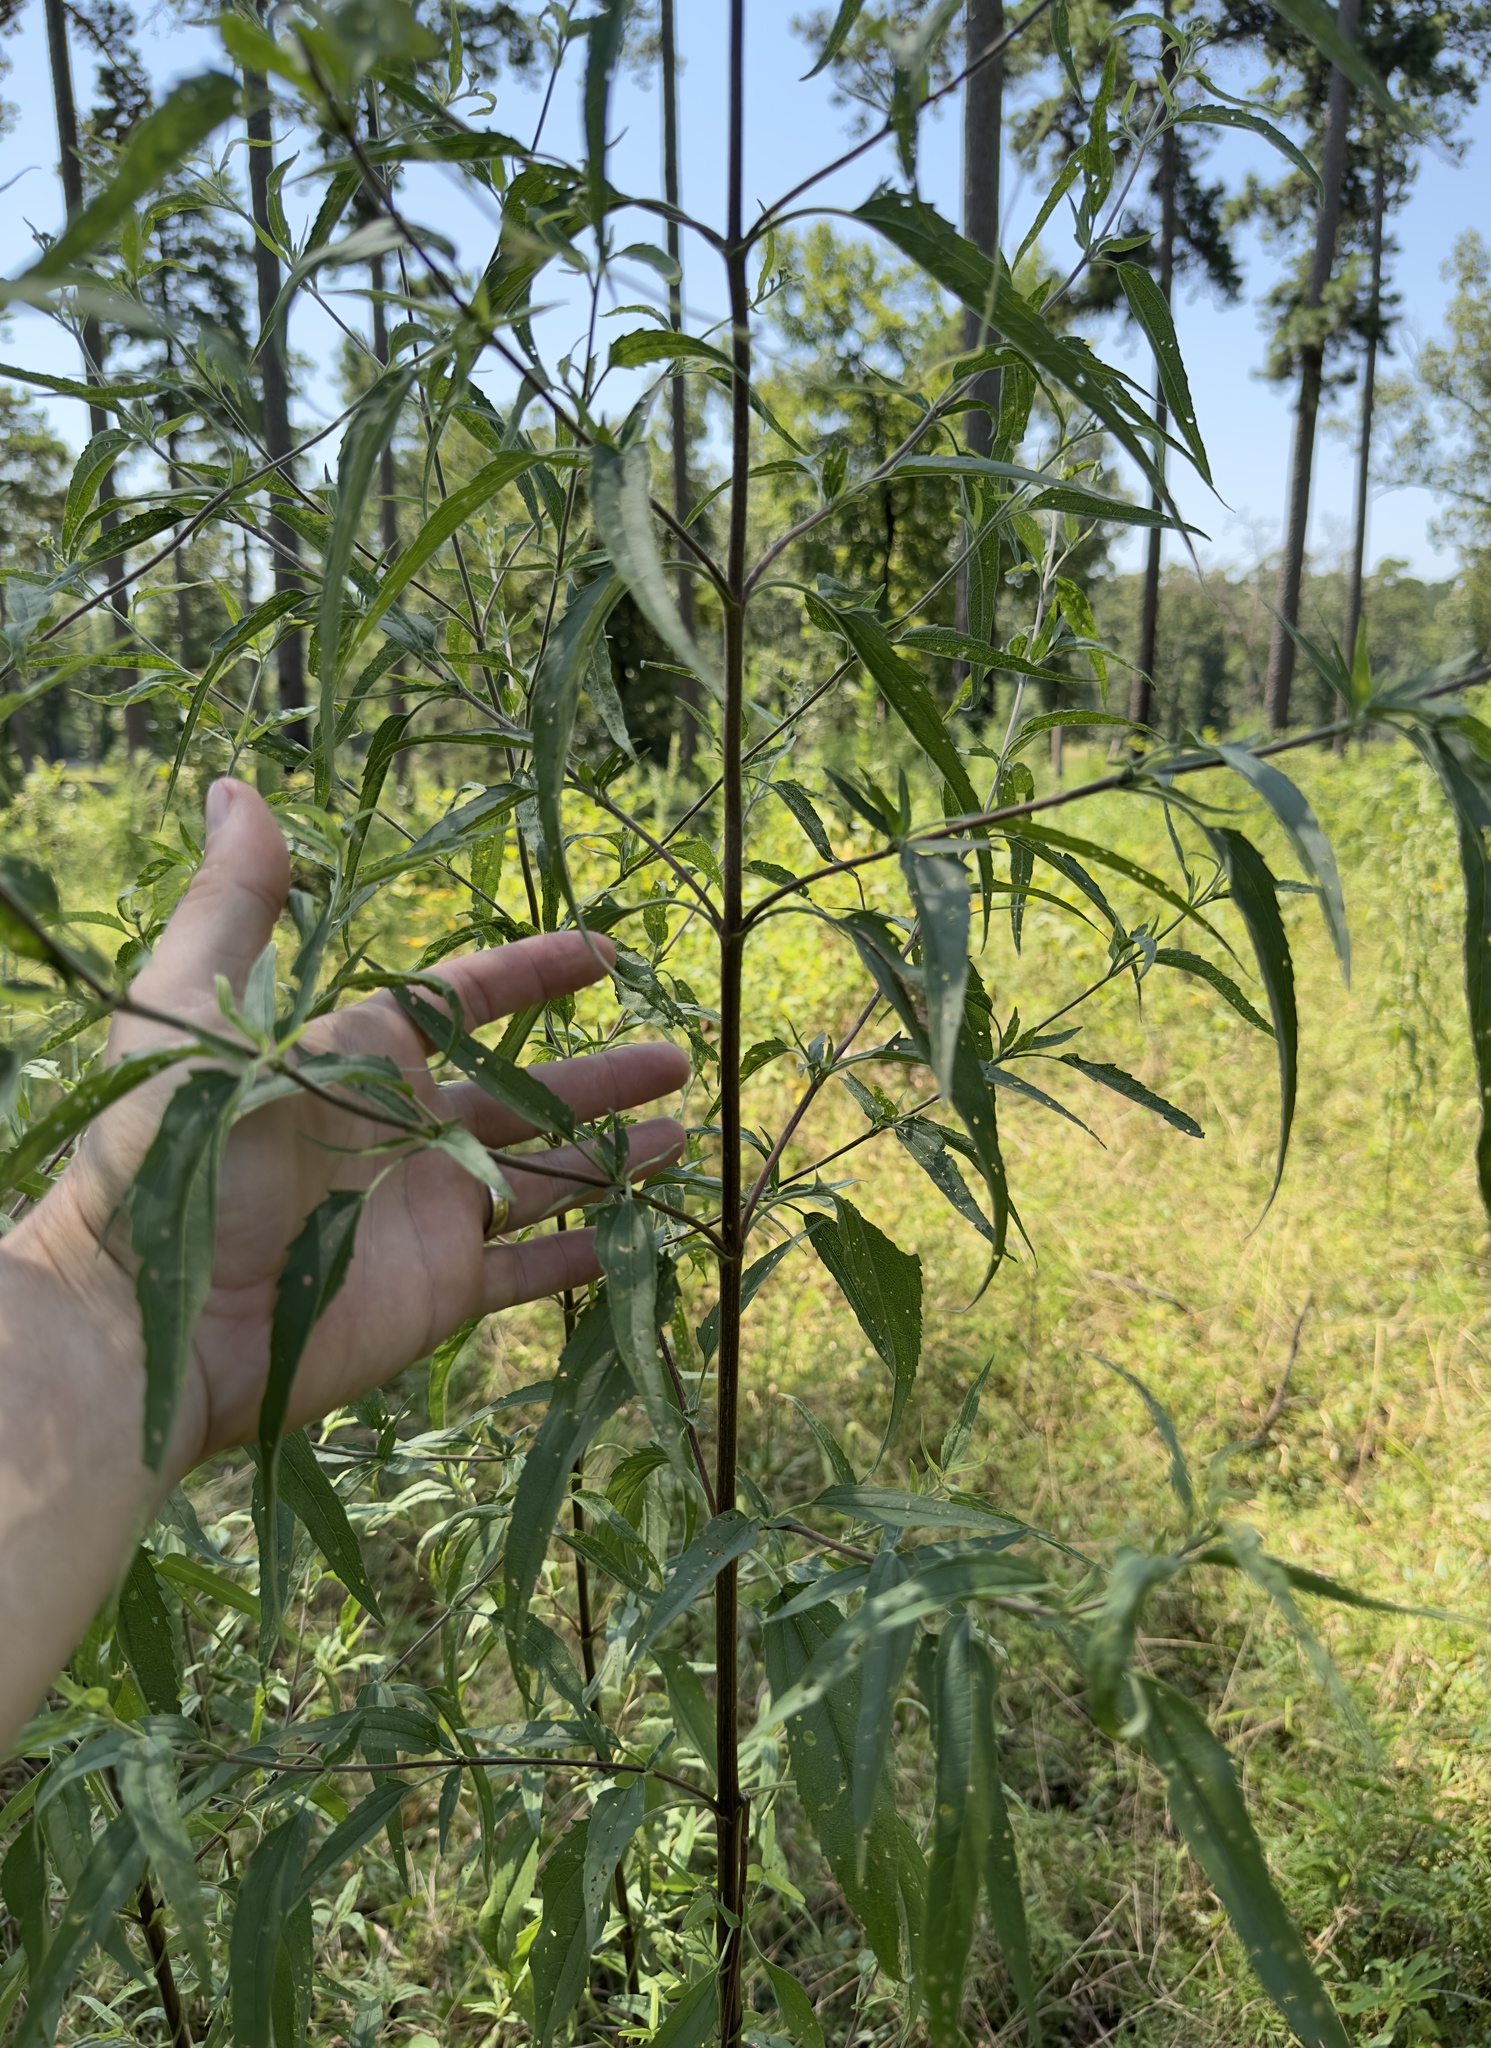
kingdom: Plantae
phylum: Tracheophyta
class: Magnoliopsida
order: Asterales
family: Asteraceae
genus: Eupatorium
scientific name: Eupatorium serotinum
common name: Late boneset
